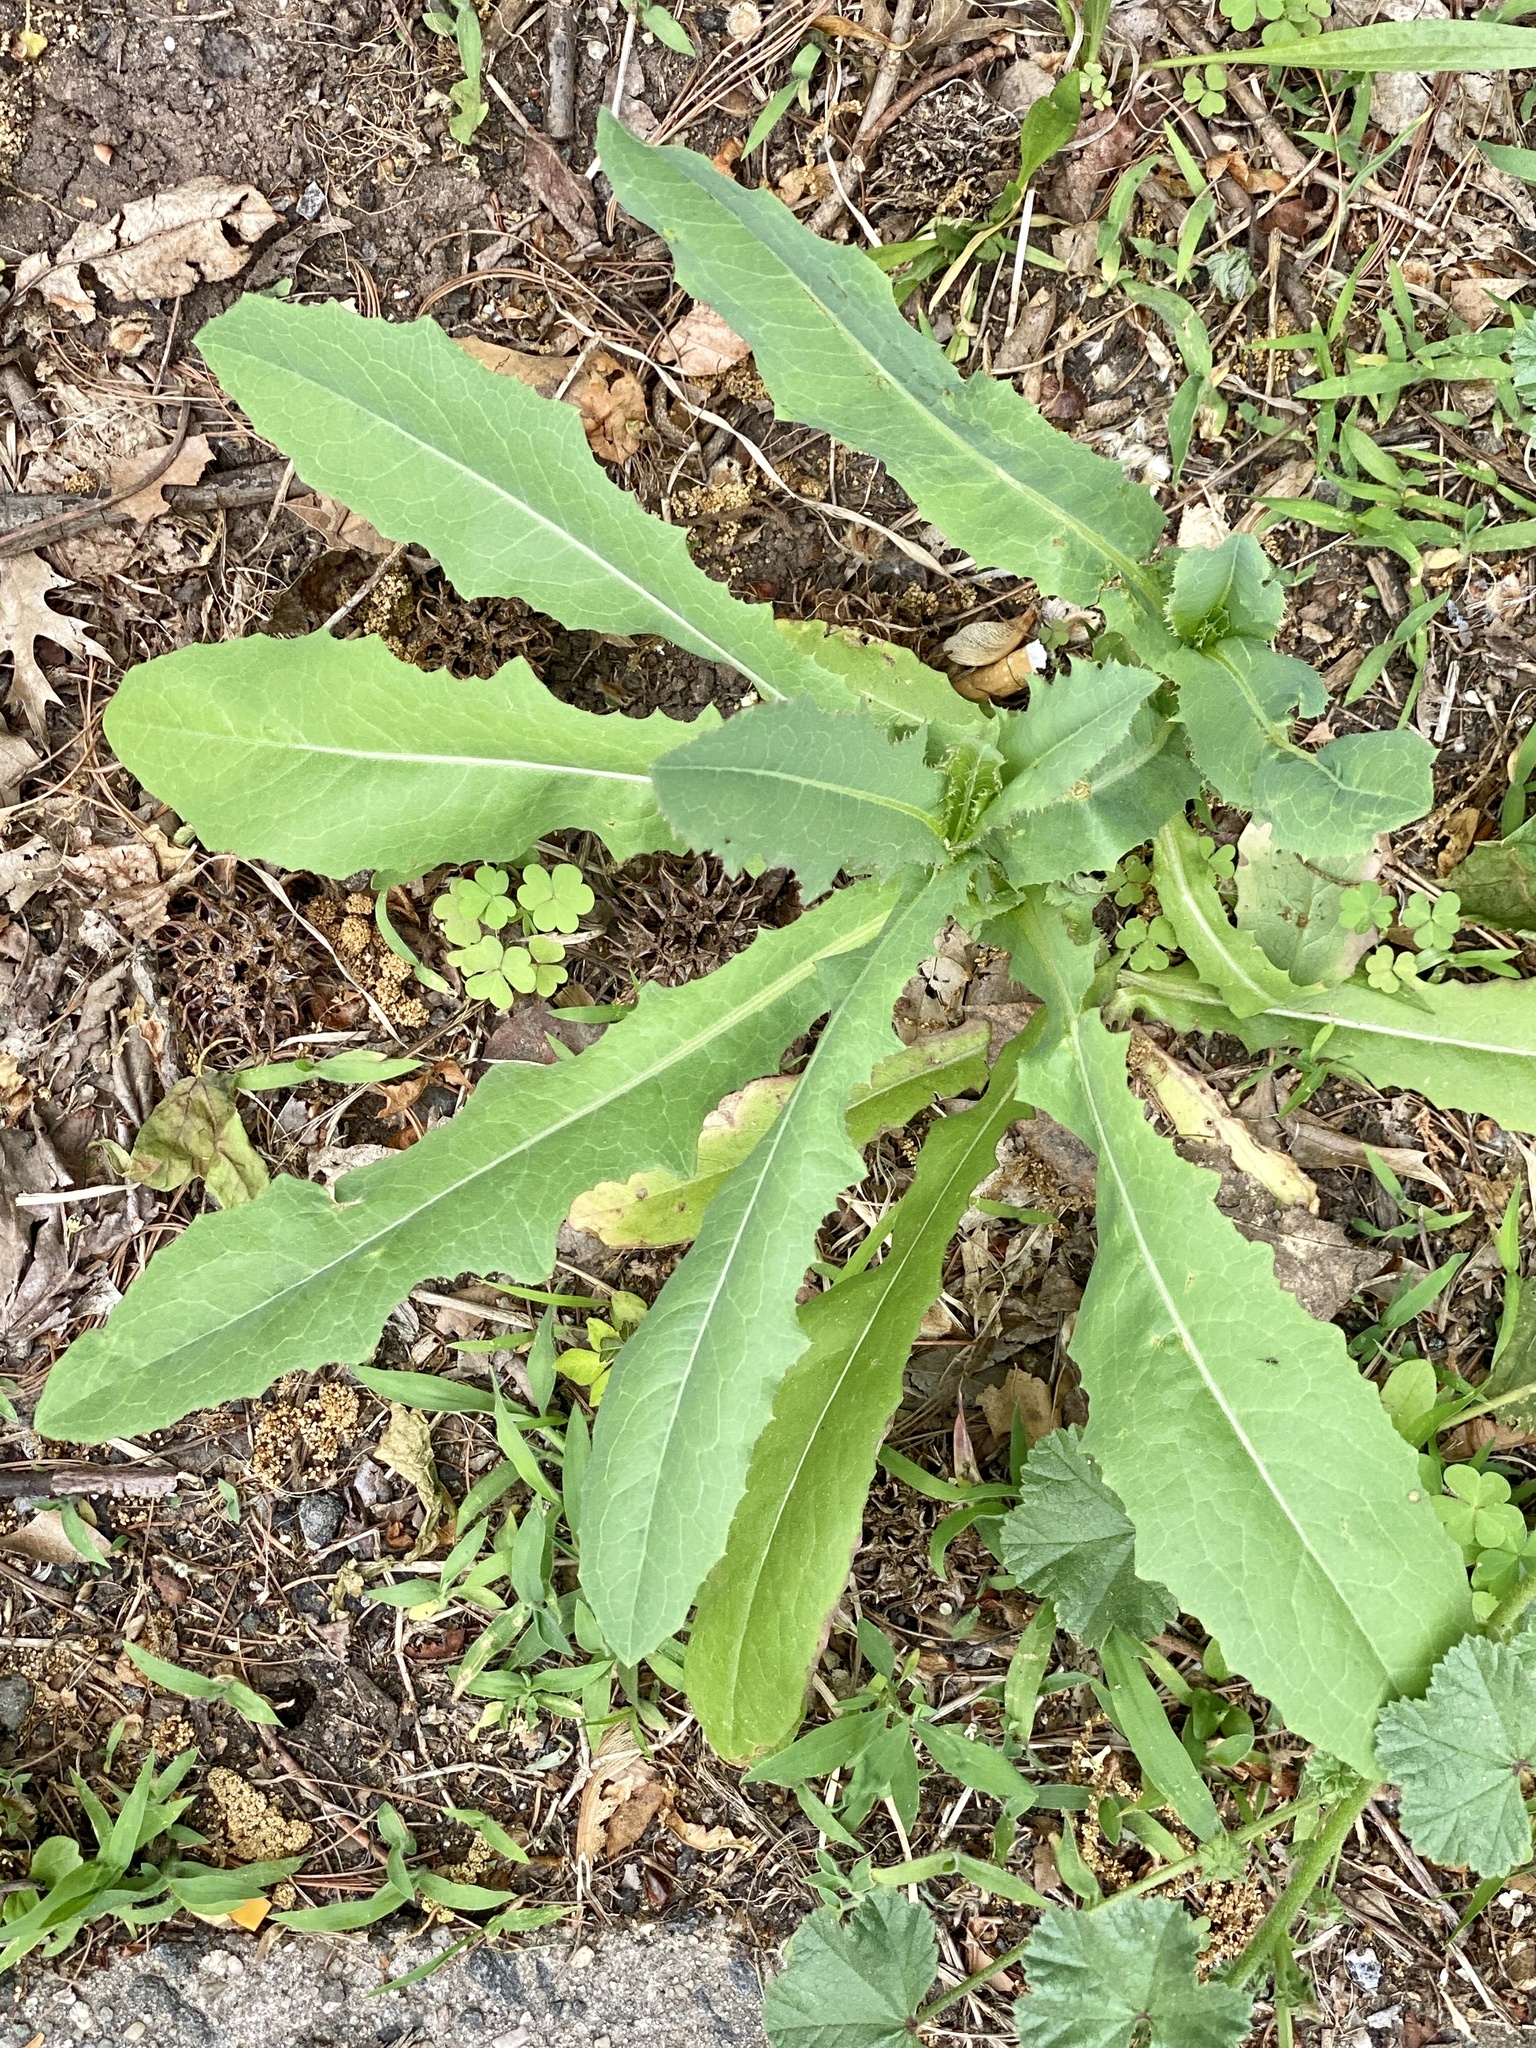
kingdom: Plantae
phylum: Tracheophyta
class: Magnoliopsida
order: Asterales
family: Asteraceae
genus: Lactuca
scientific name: Lactuca serriola
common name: Prickly lettuce
